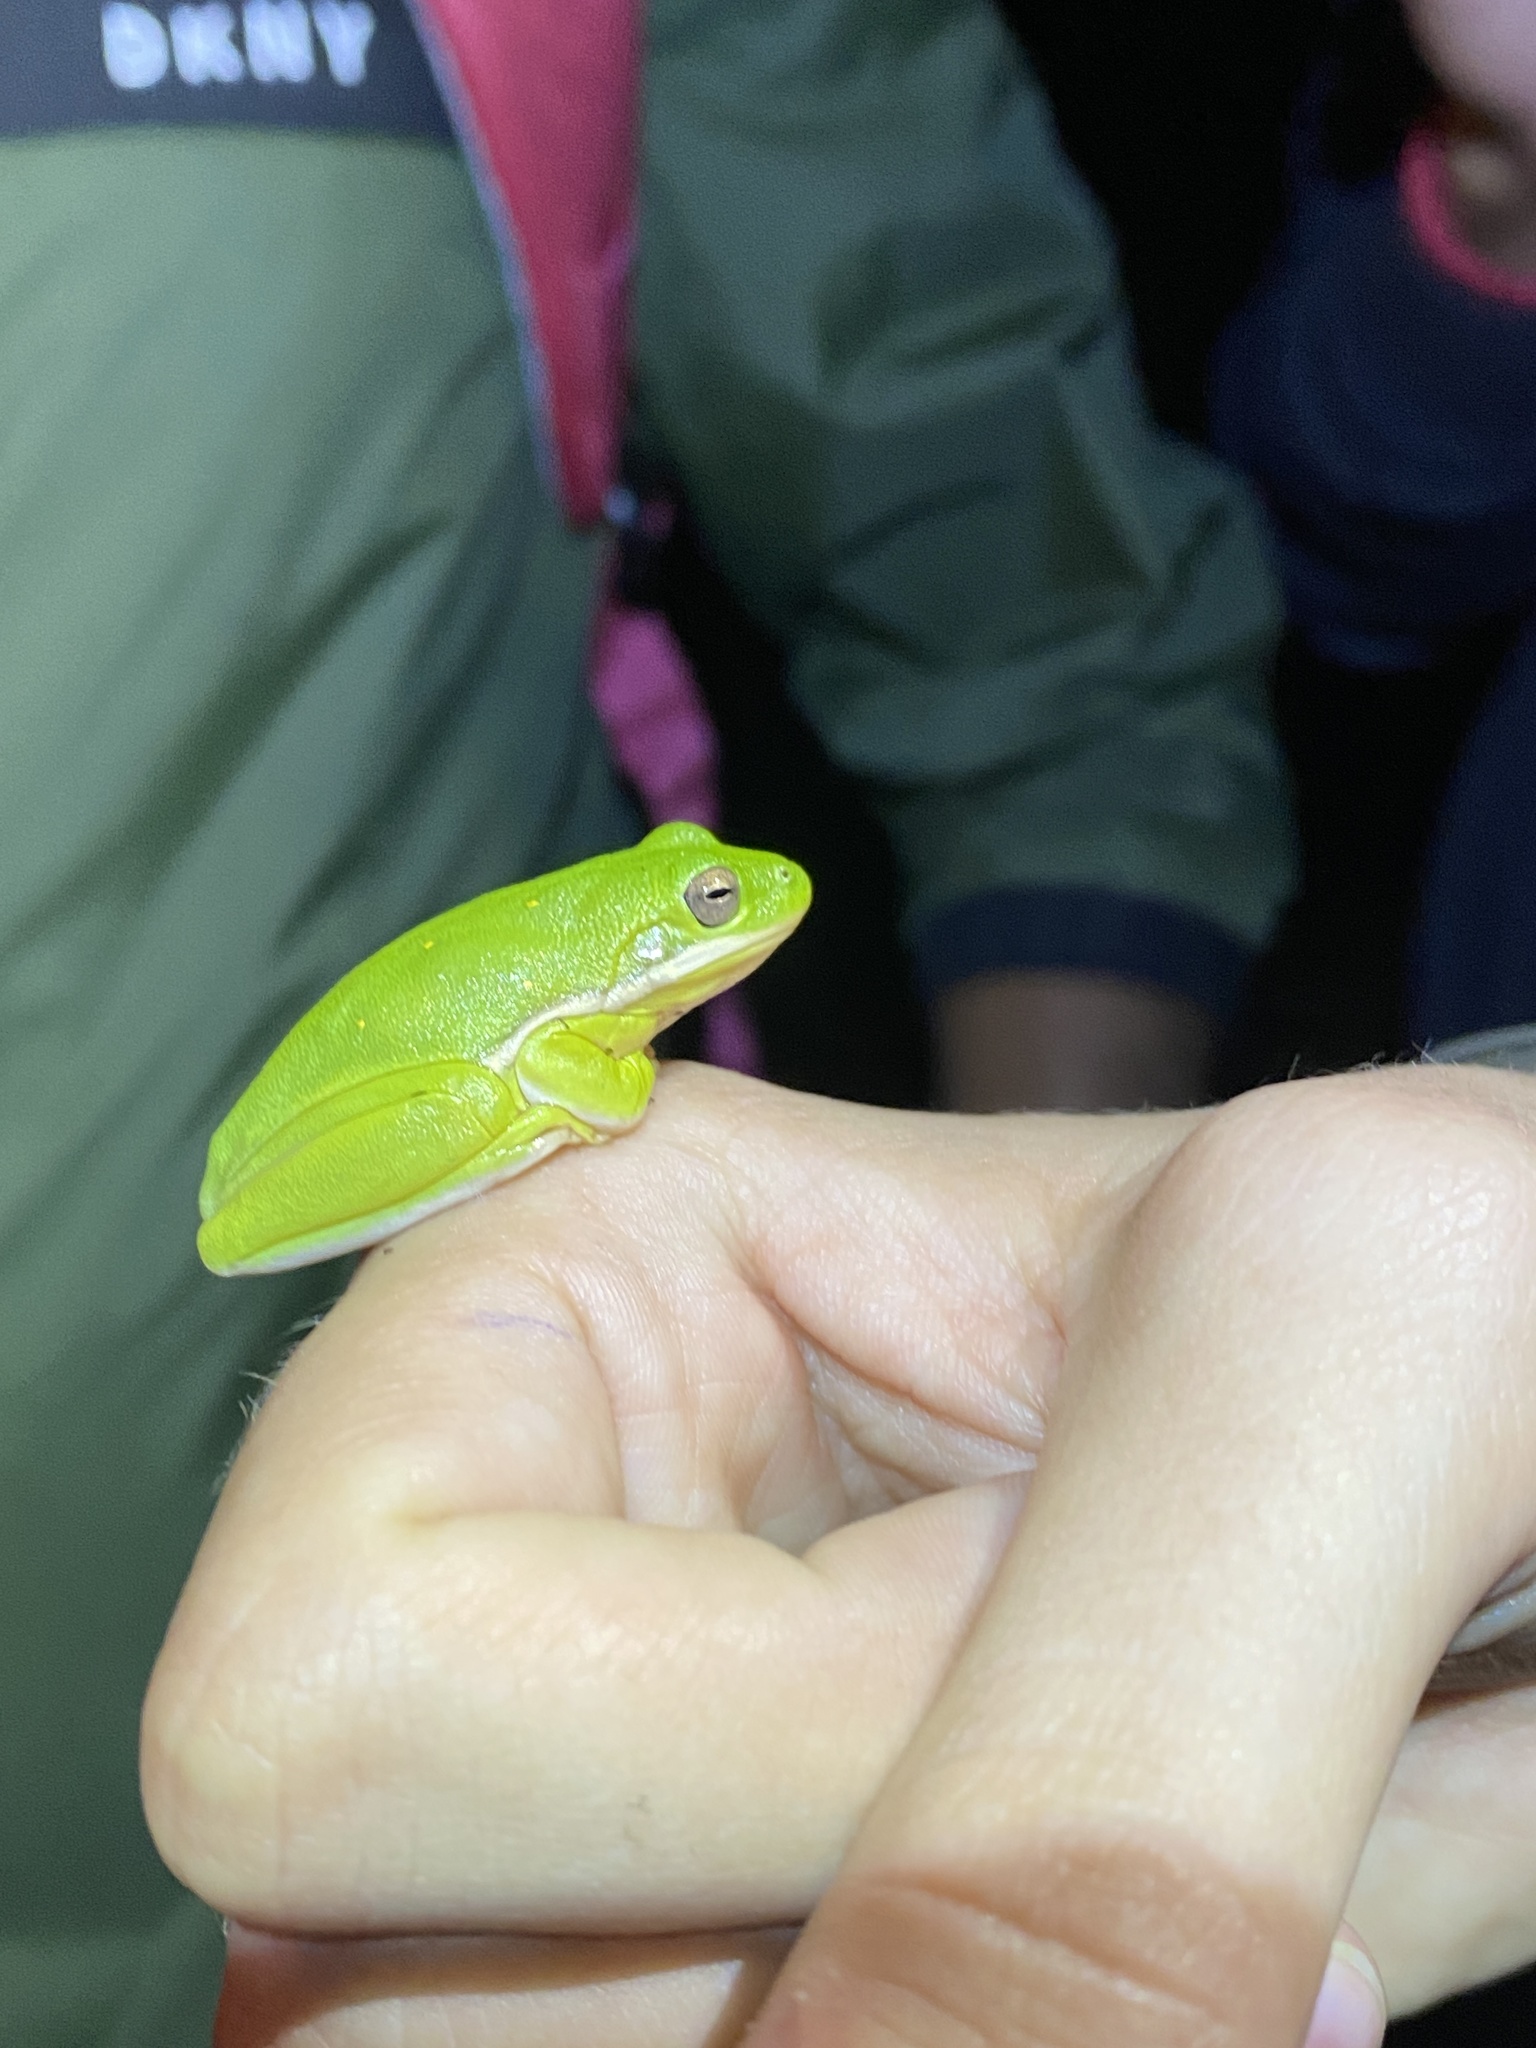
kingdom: Animalia
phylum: Chordata
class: Amphibia
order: Anura
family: Hylidae
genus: Dryophytes
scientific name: Dryophytes cinereus
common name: Green treefrog
